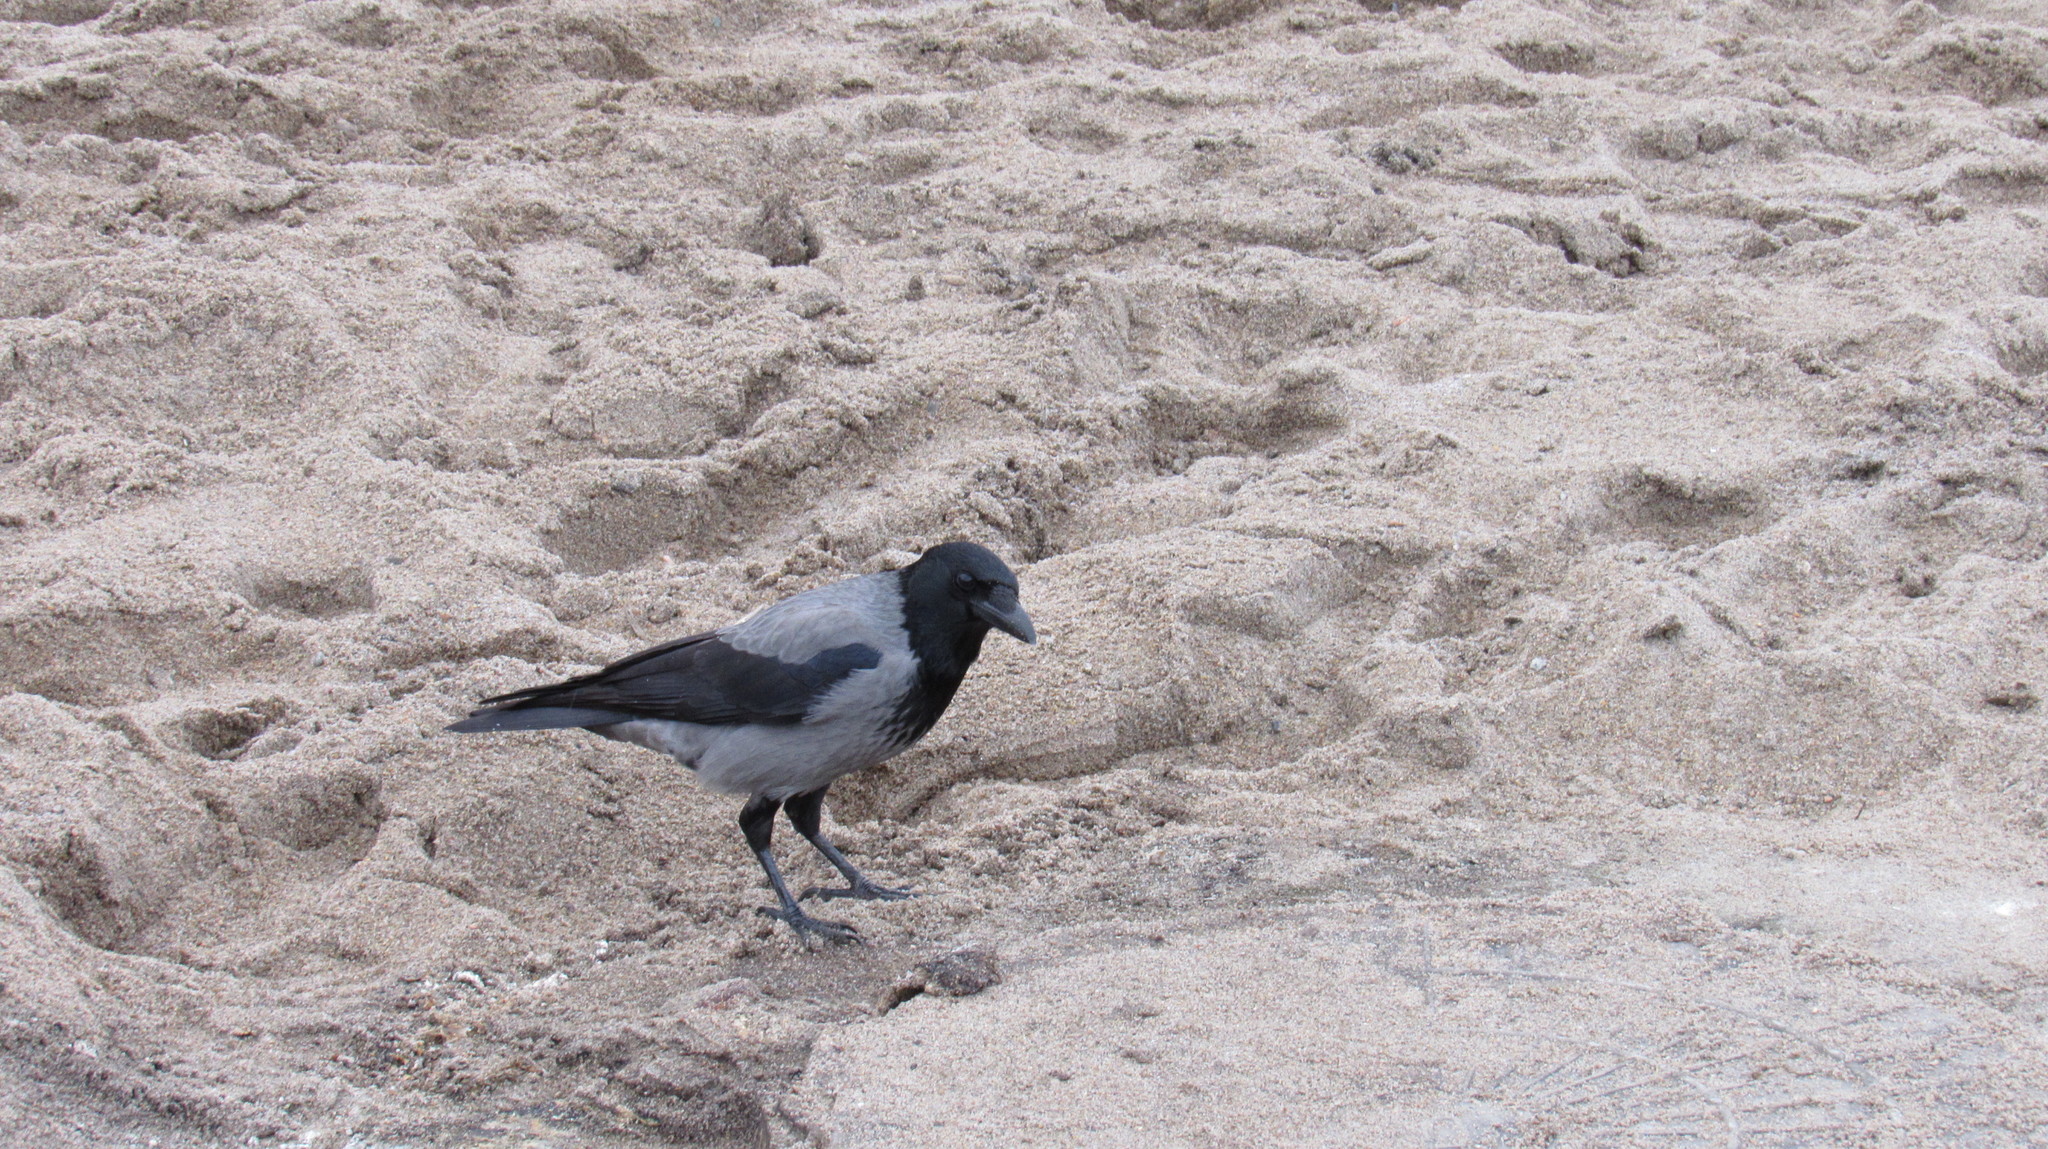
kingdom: Animalia
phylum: Chordata
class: Aves
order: Passeriformes
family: Corvidae
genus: Corvus
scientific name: Corvus cornix
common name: Hooded crow
